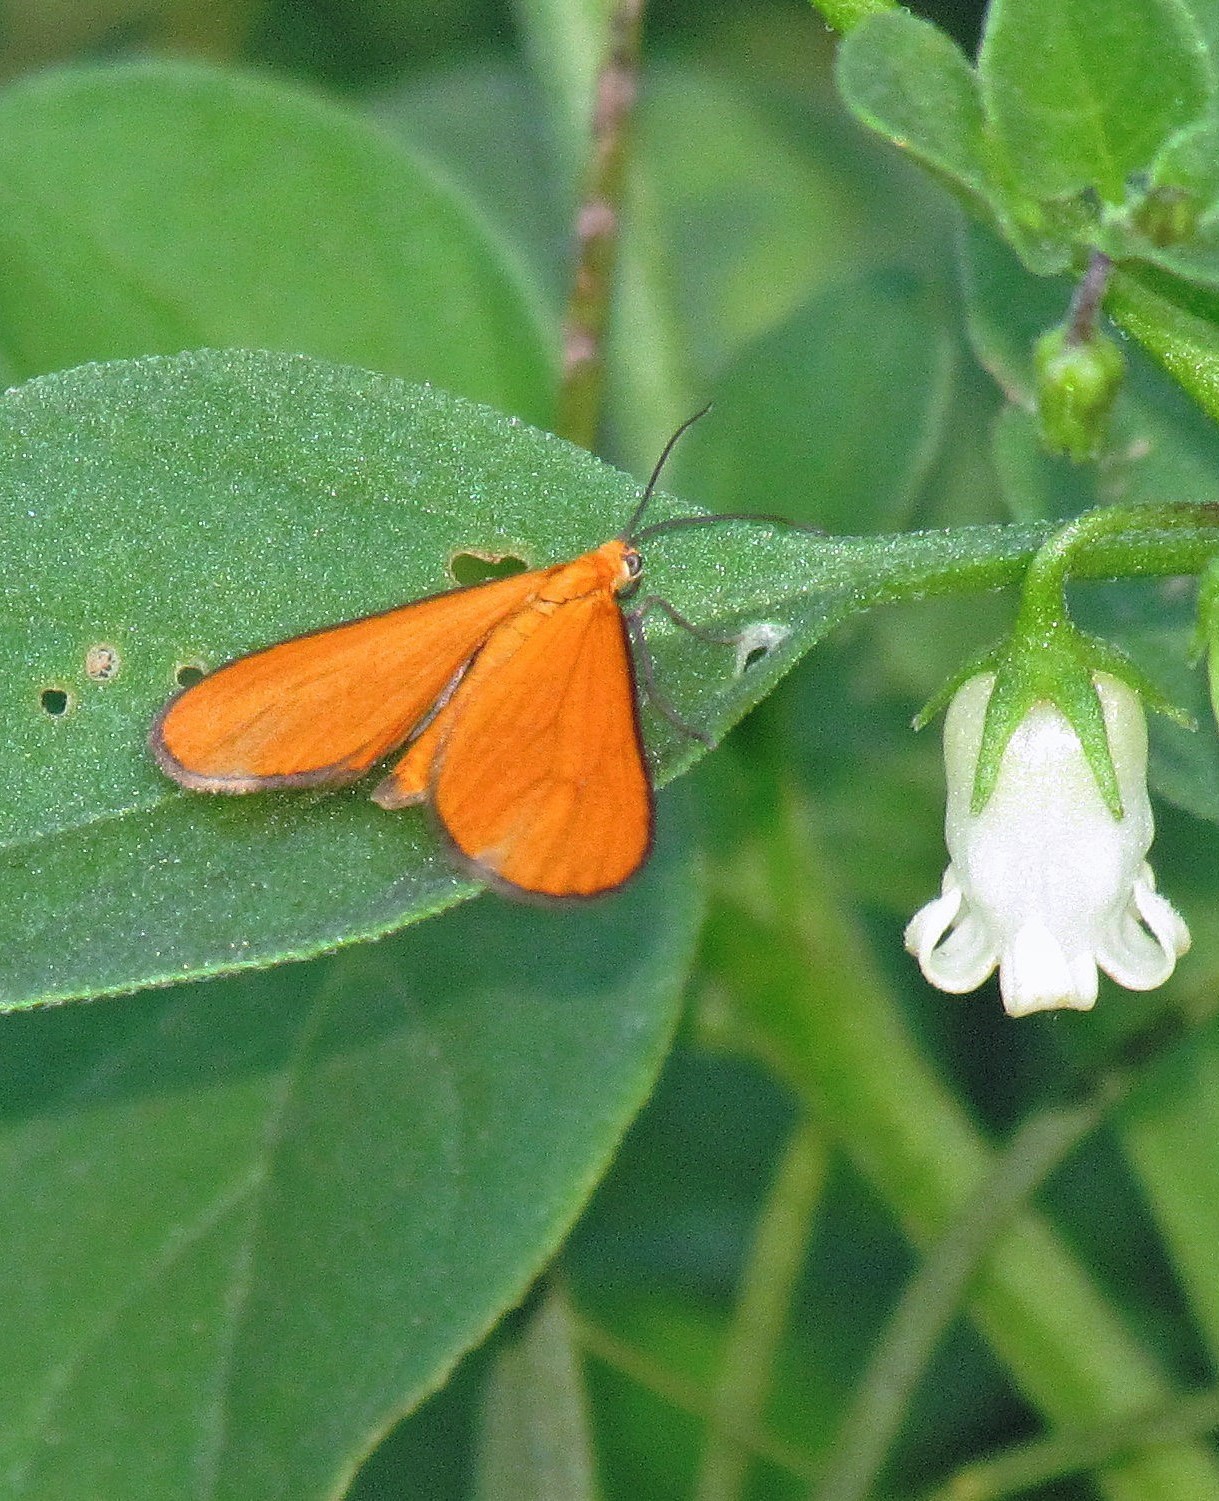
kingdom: Animalia
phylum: Arthropoda
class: Insecta
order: Lepidoptera
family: Geometridae
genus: Eudulophasia
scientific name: Eudulophasia invaria
